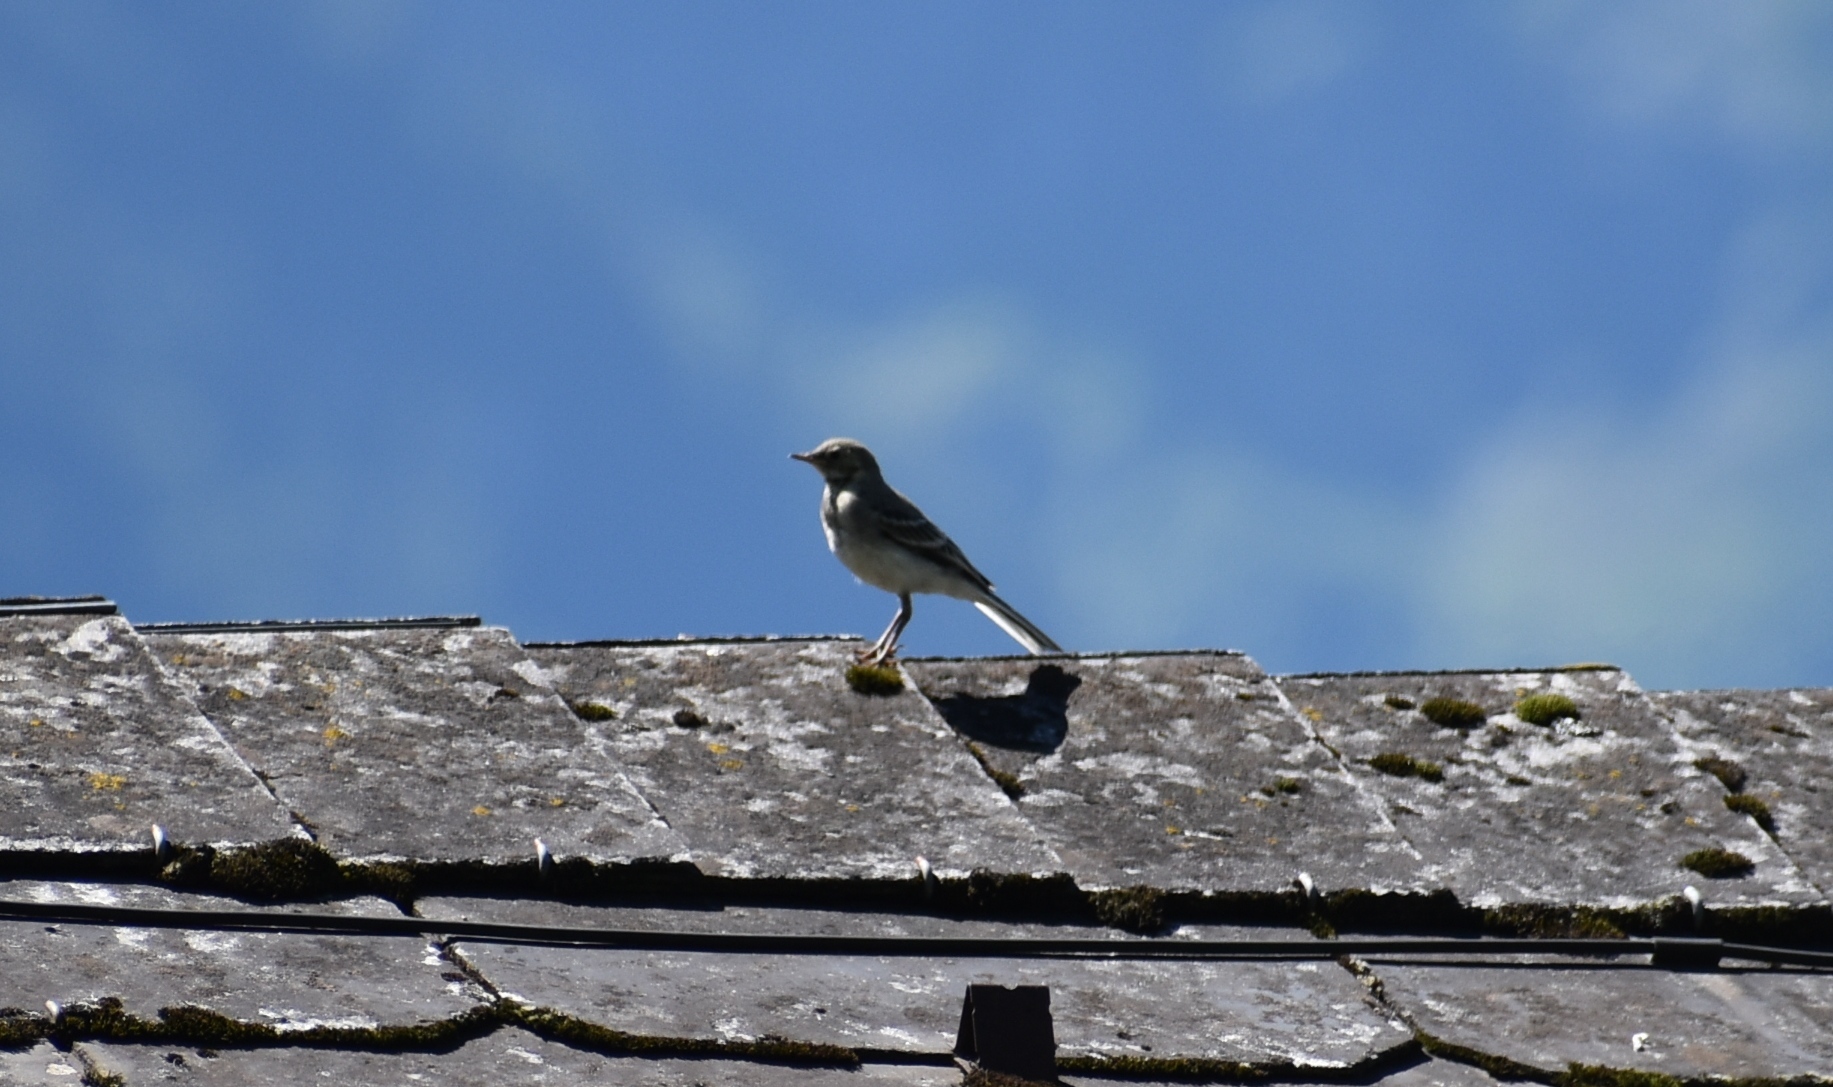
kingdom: Animalia
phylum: Chordata
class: Aves
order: Passeriformes
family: Motacillidae
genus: Motacilla
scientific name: Motacilla alba
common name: White wagtail
